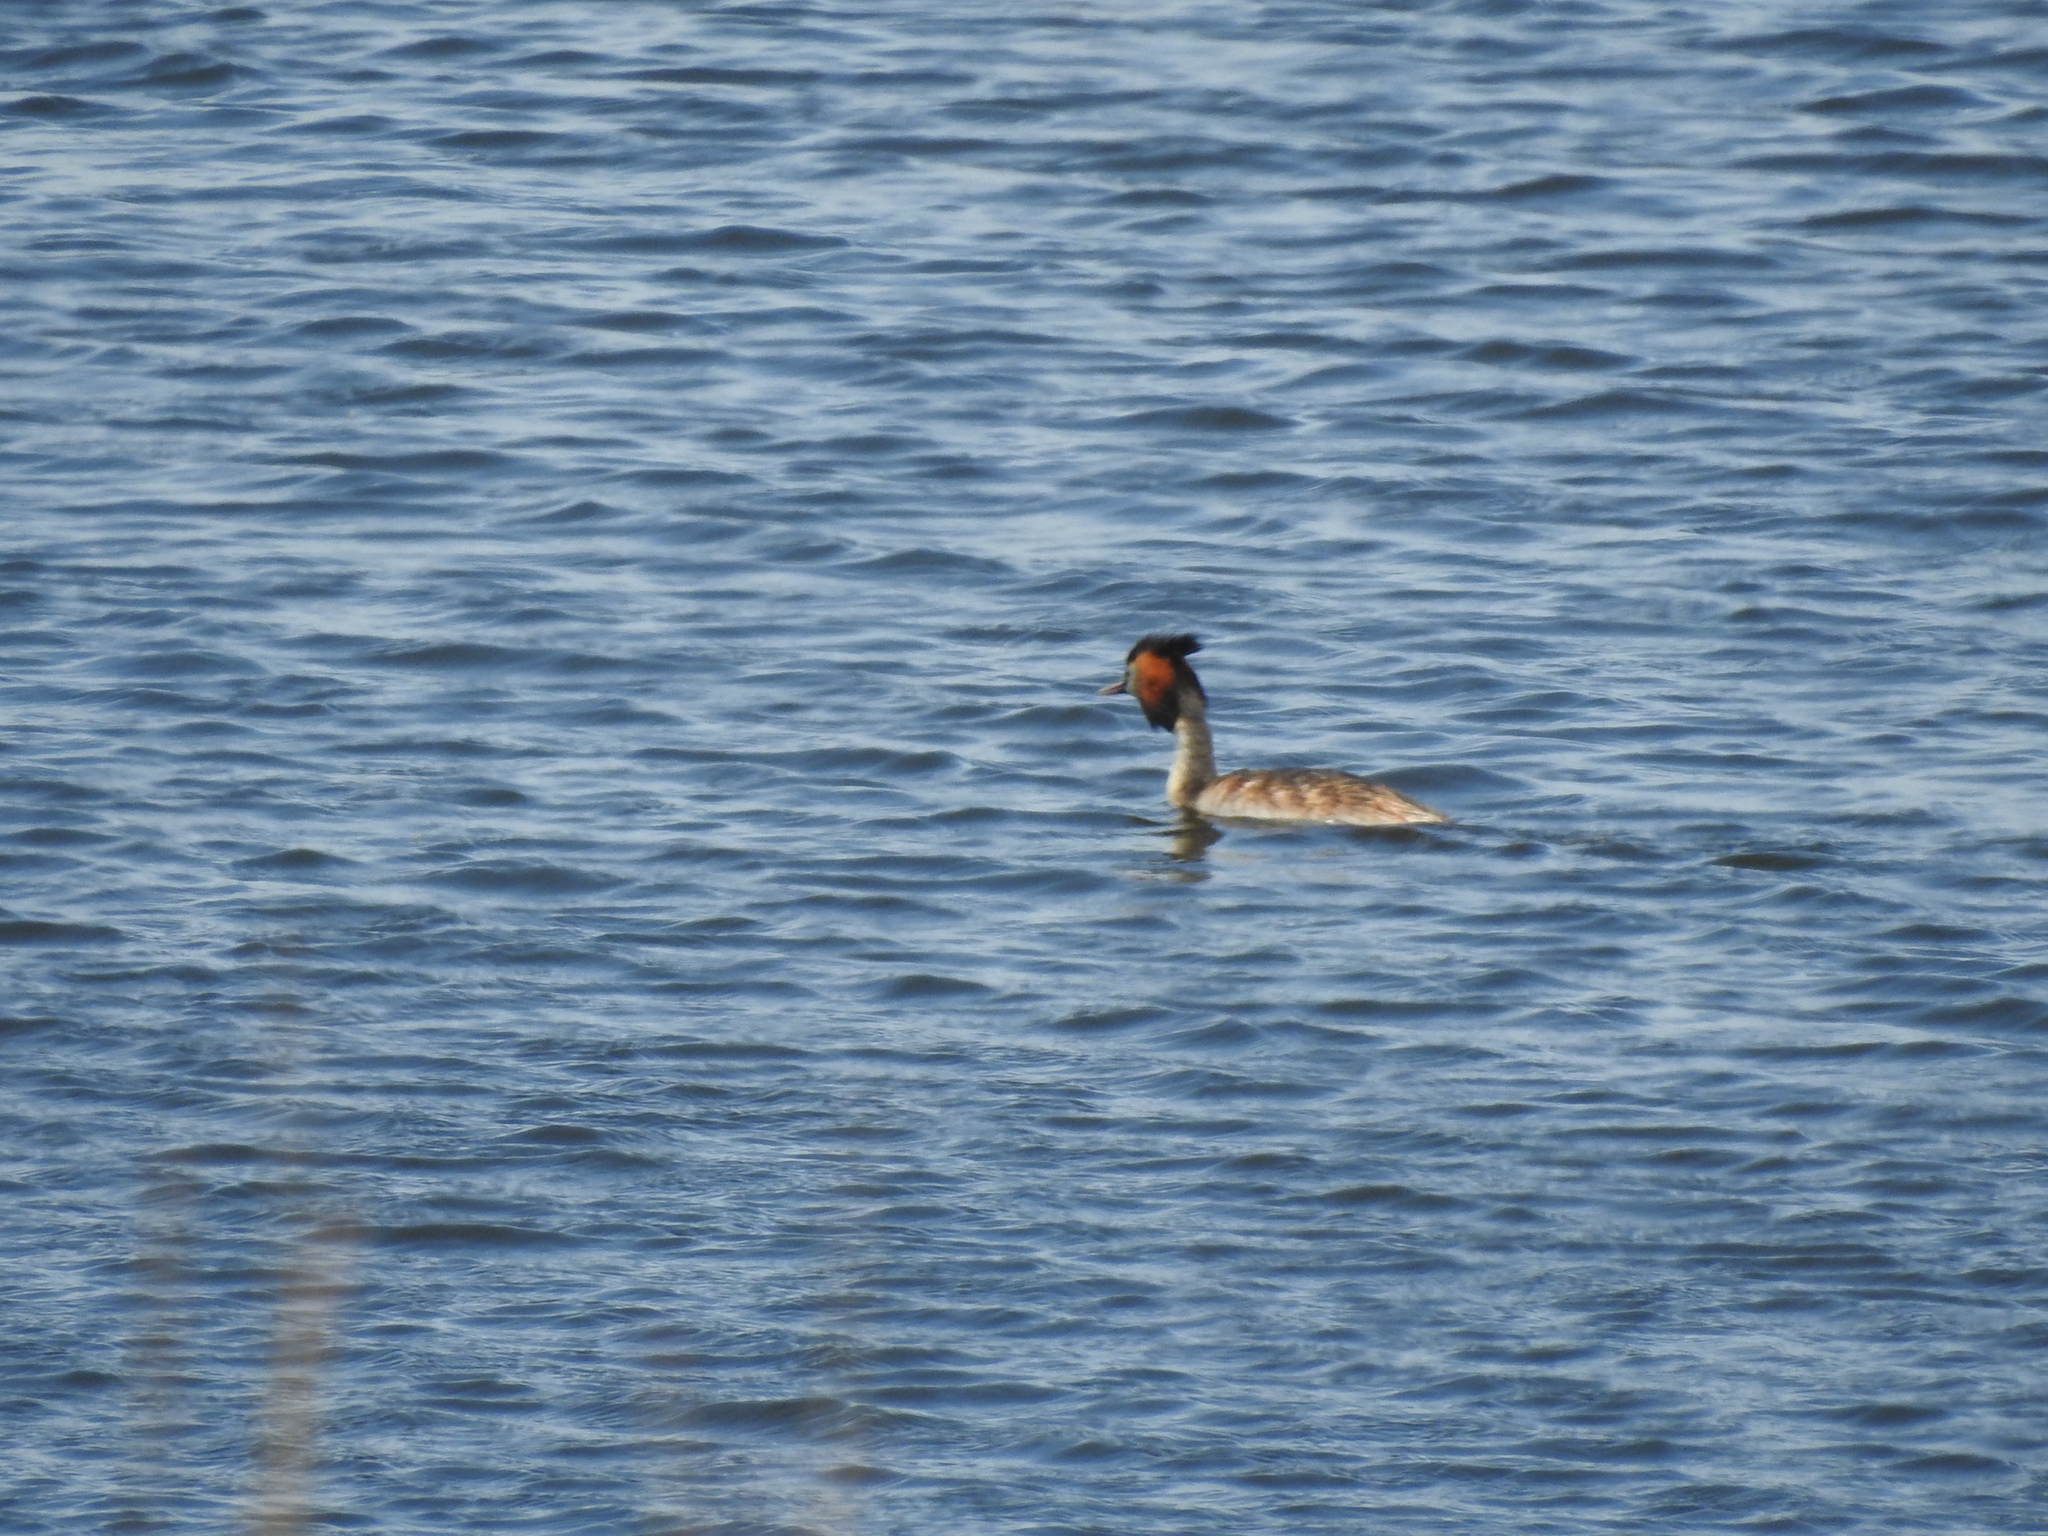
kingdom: Animalia
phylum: Chordata
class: Aves
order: Podicipediformes
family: Podicipedidae
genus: Podiceps
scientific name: Podiceps cristatus
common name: Great crested grebe
